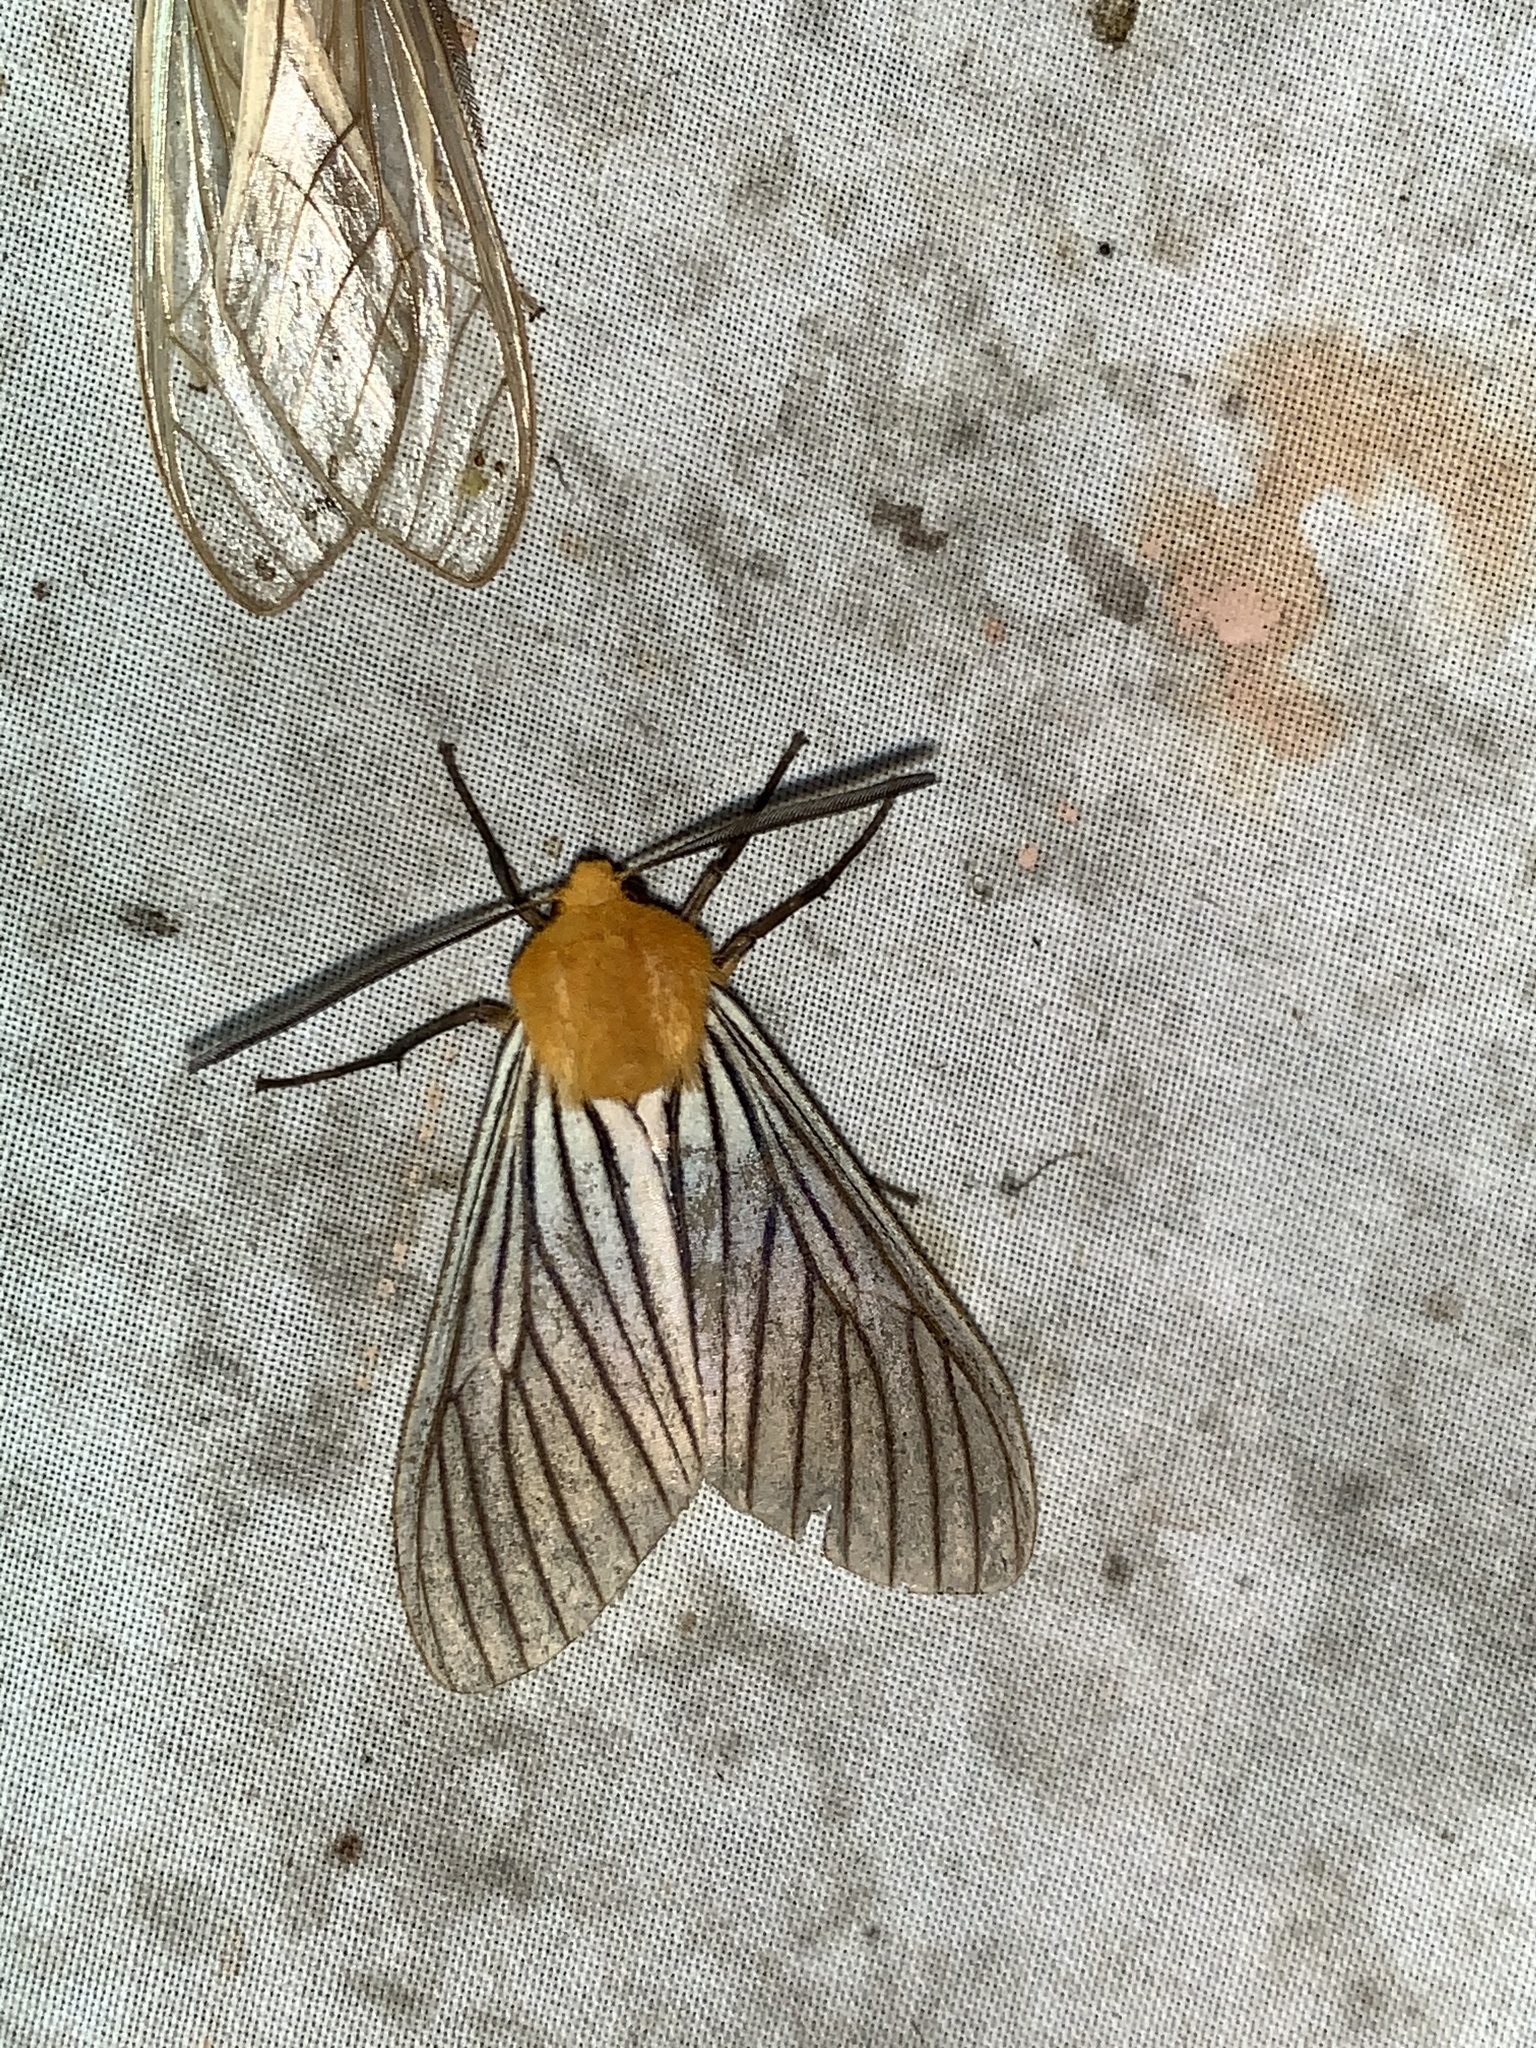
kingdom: Animalia
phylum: Arthropoda
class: Insecta
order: Lepidoptera
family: Erebidae
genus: Pseudischnocampa
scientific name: Pseudischnocampa humosa
